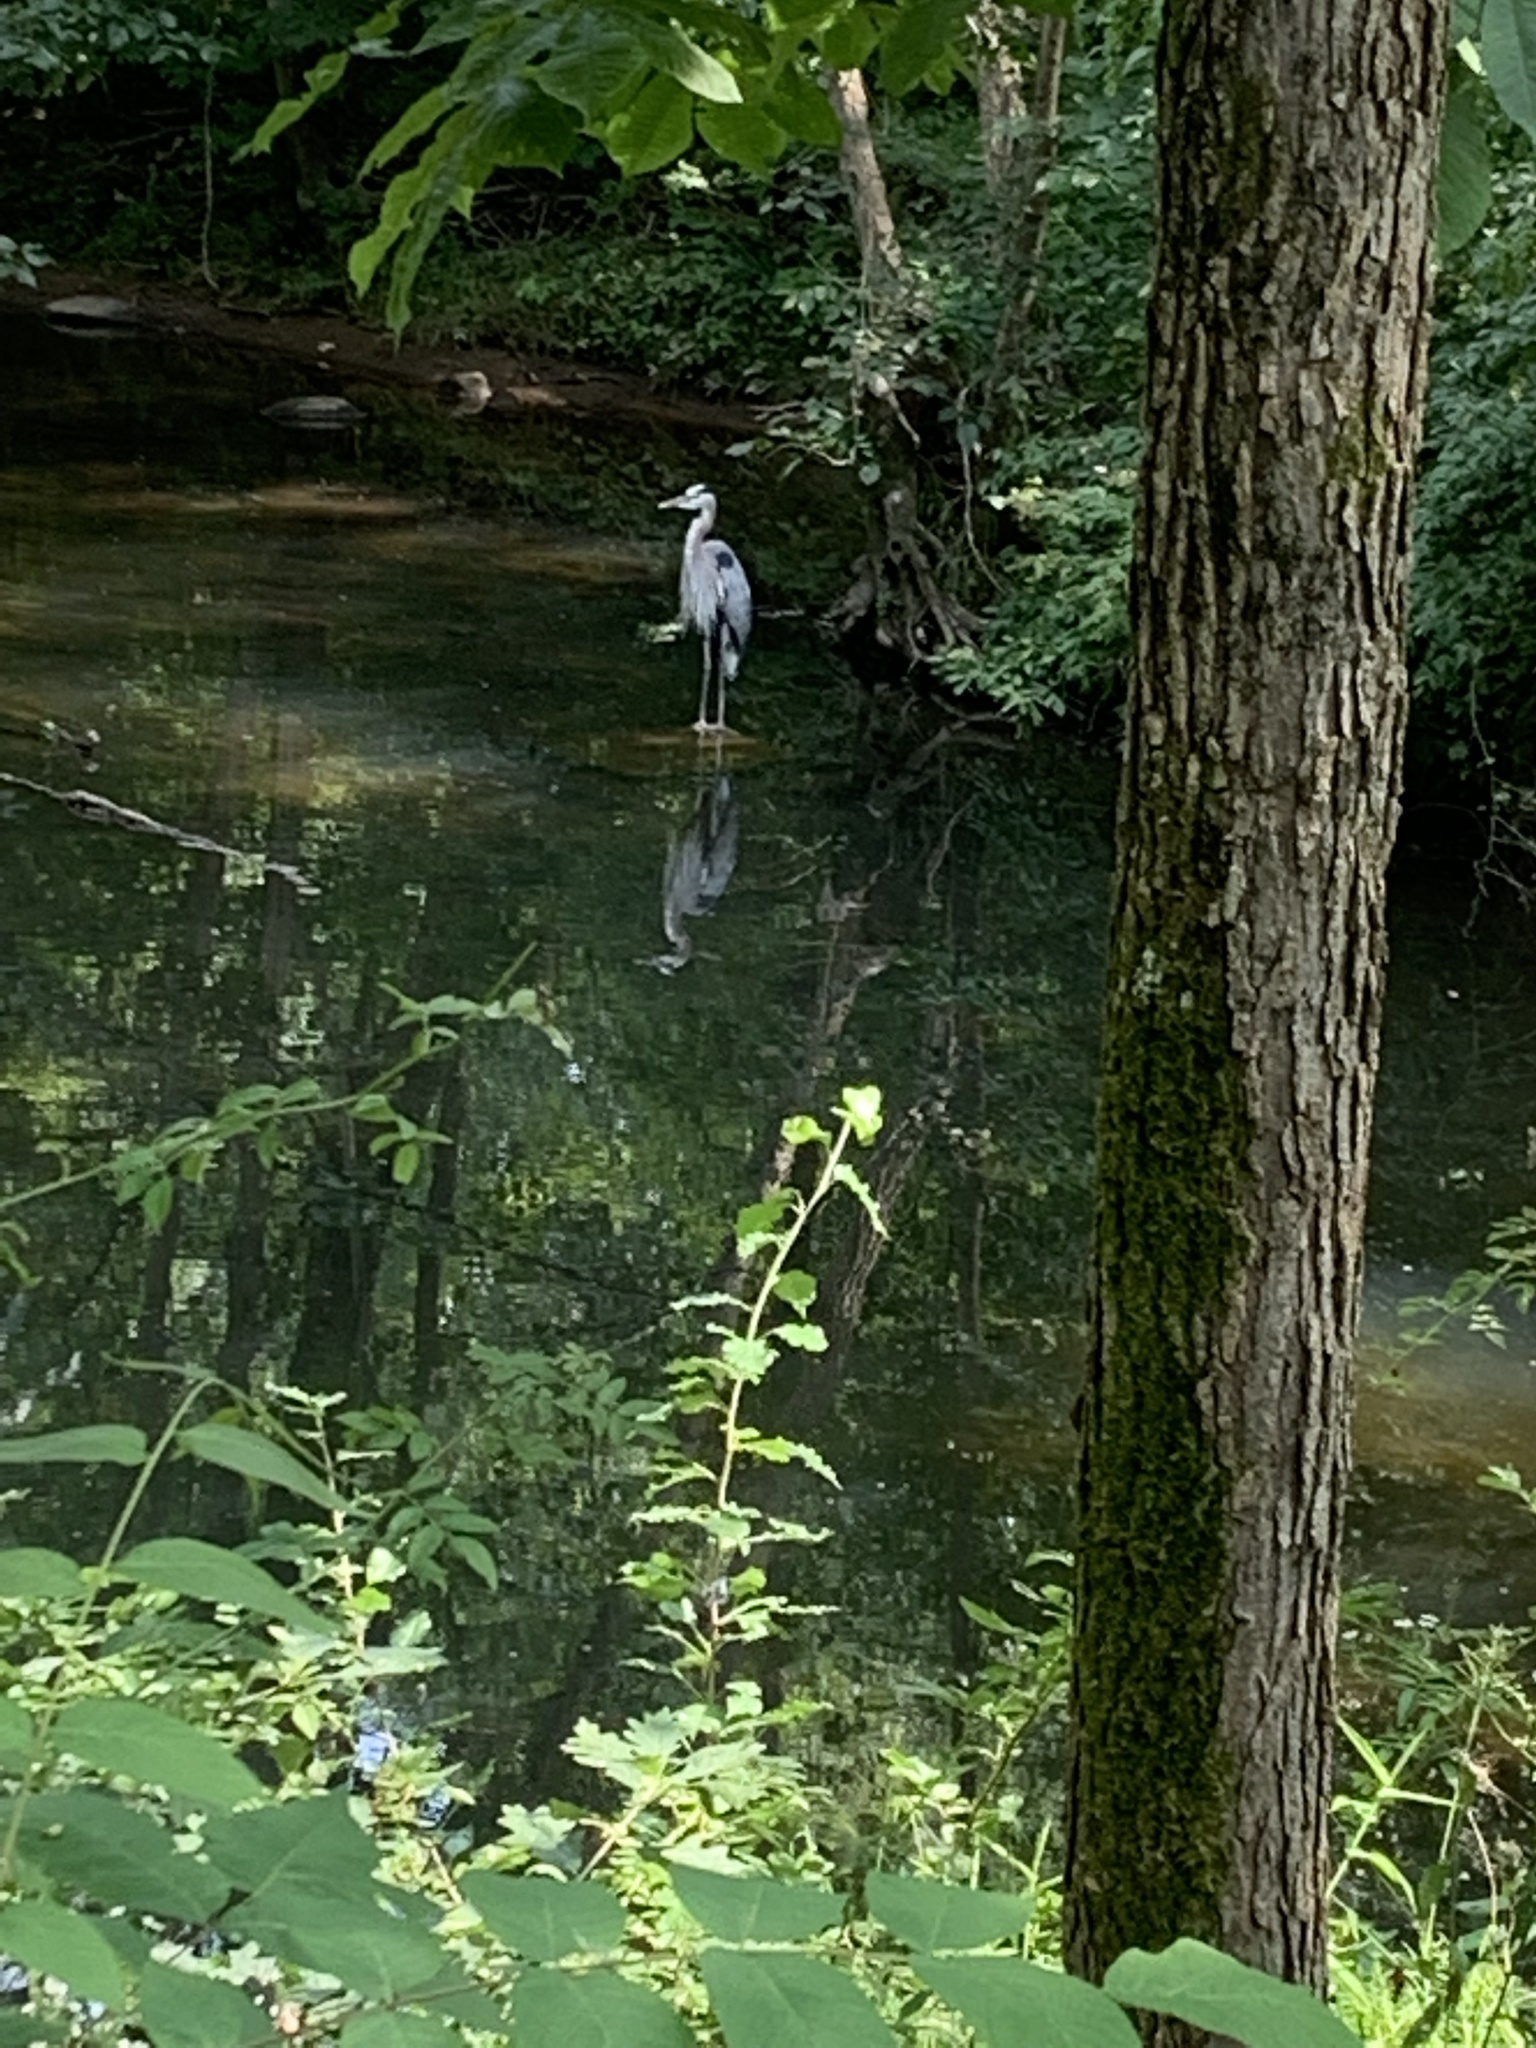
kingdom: Animalia
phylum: Chordata
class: Aves
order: Pelecaniformes
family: Ardeidae
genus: Ardea
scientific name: Ardea herodias
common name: Great blue heron
